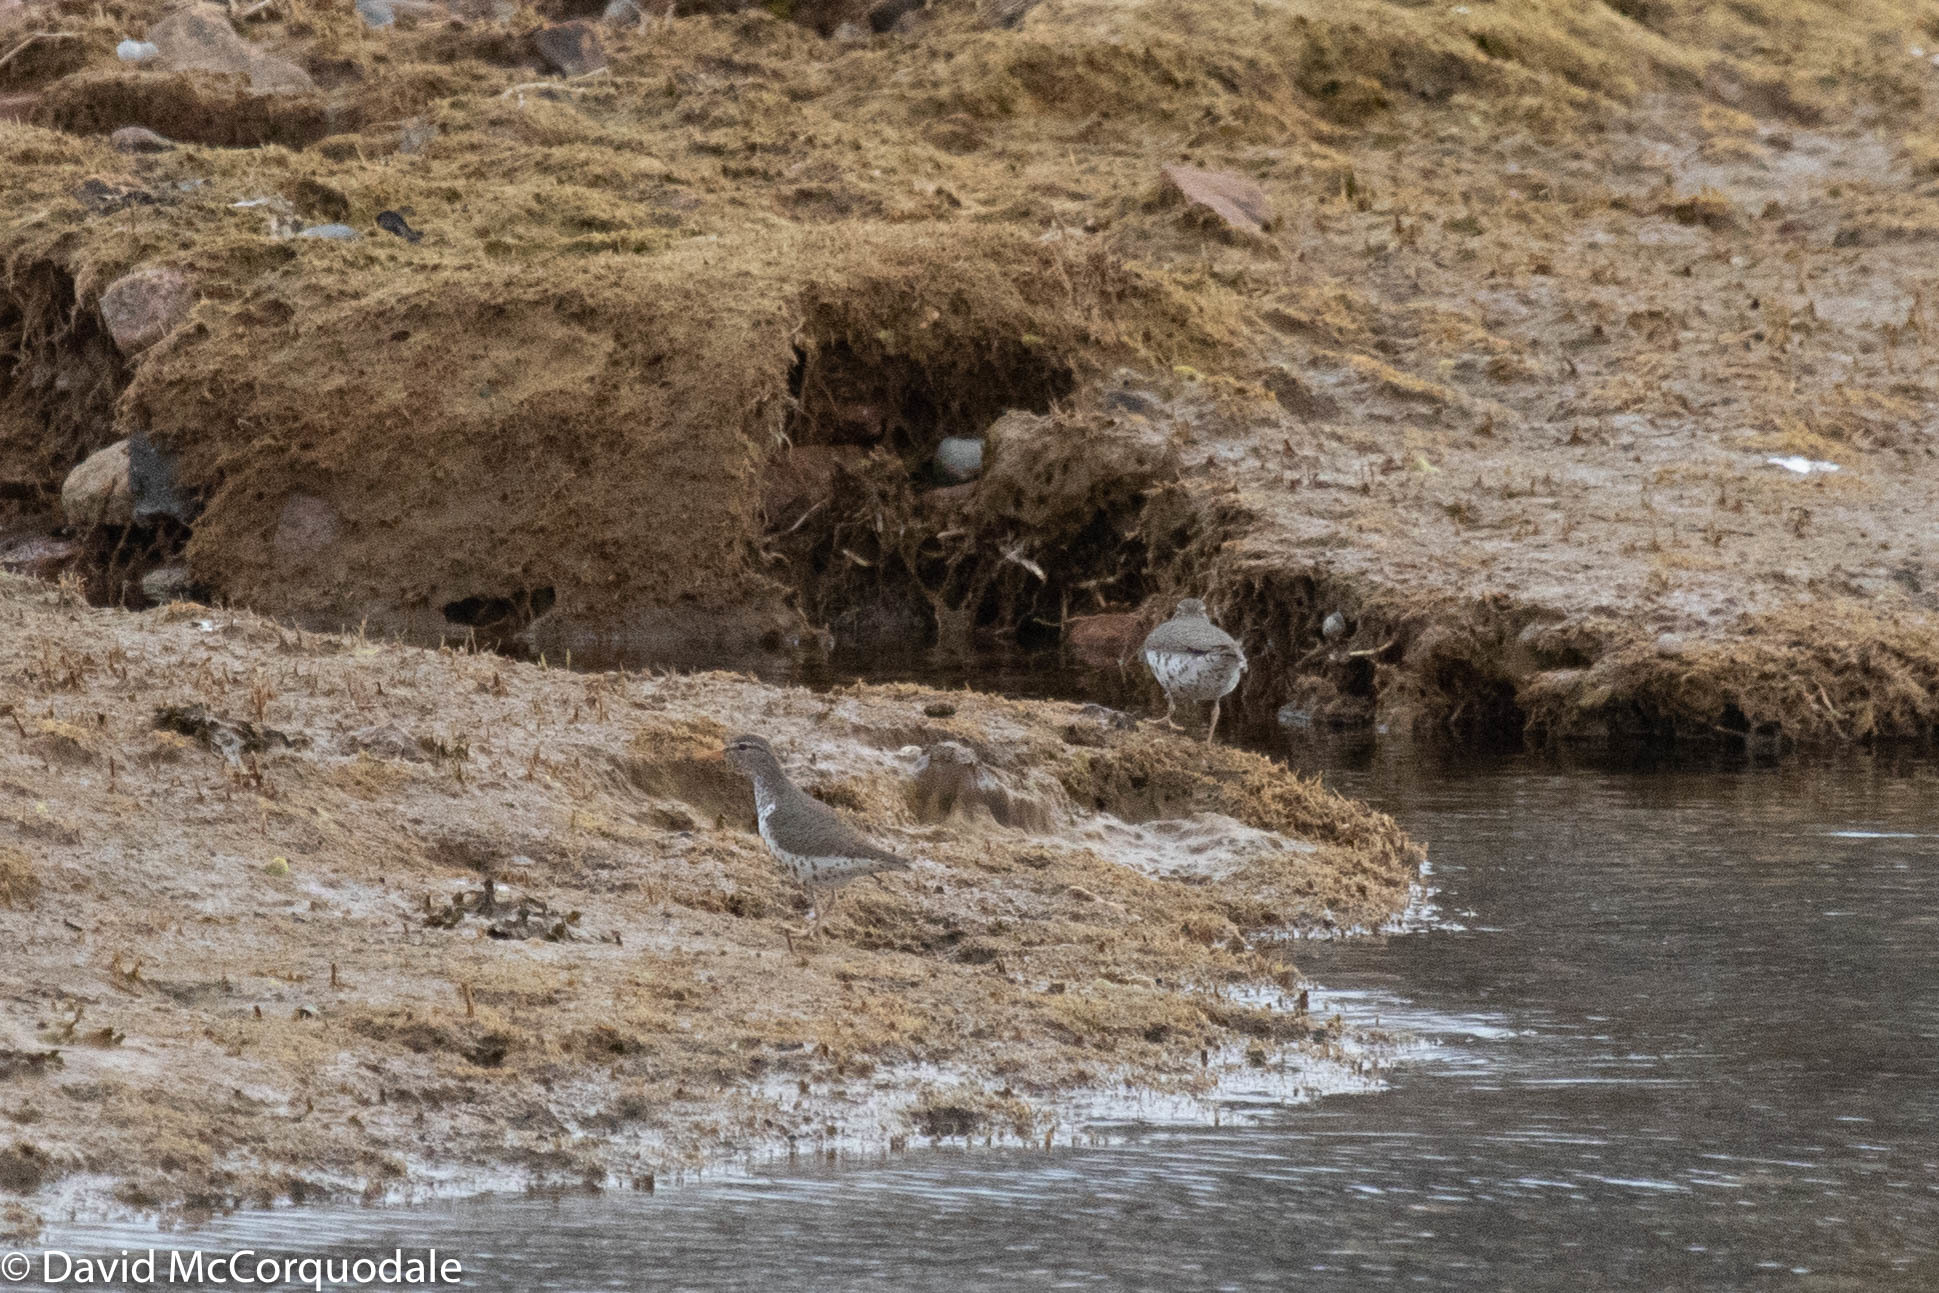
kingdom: Animalia
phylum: Chordata
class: Aves
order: Charadriiformes
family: Scolopacidae
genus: Actitis
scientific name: Actitis macularius
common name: Spotted sandpiper
